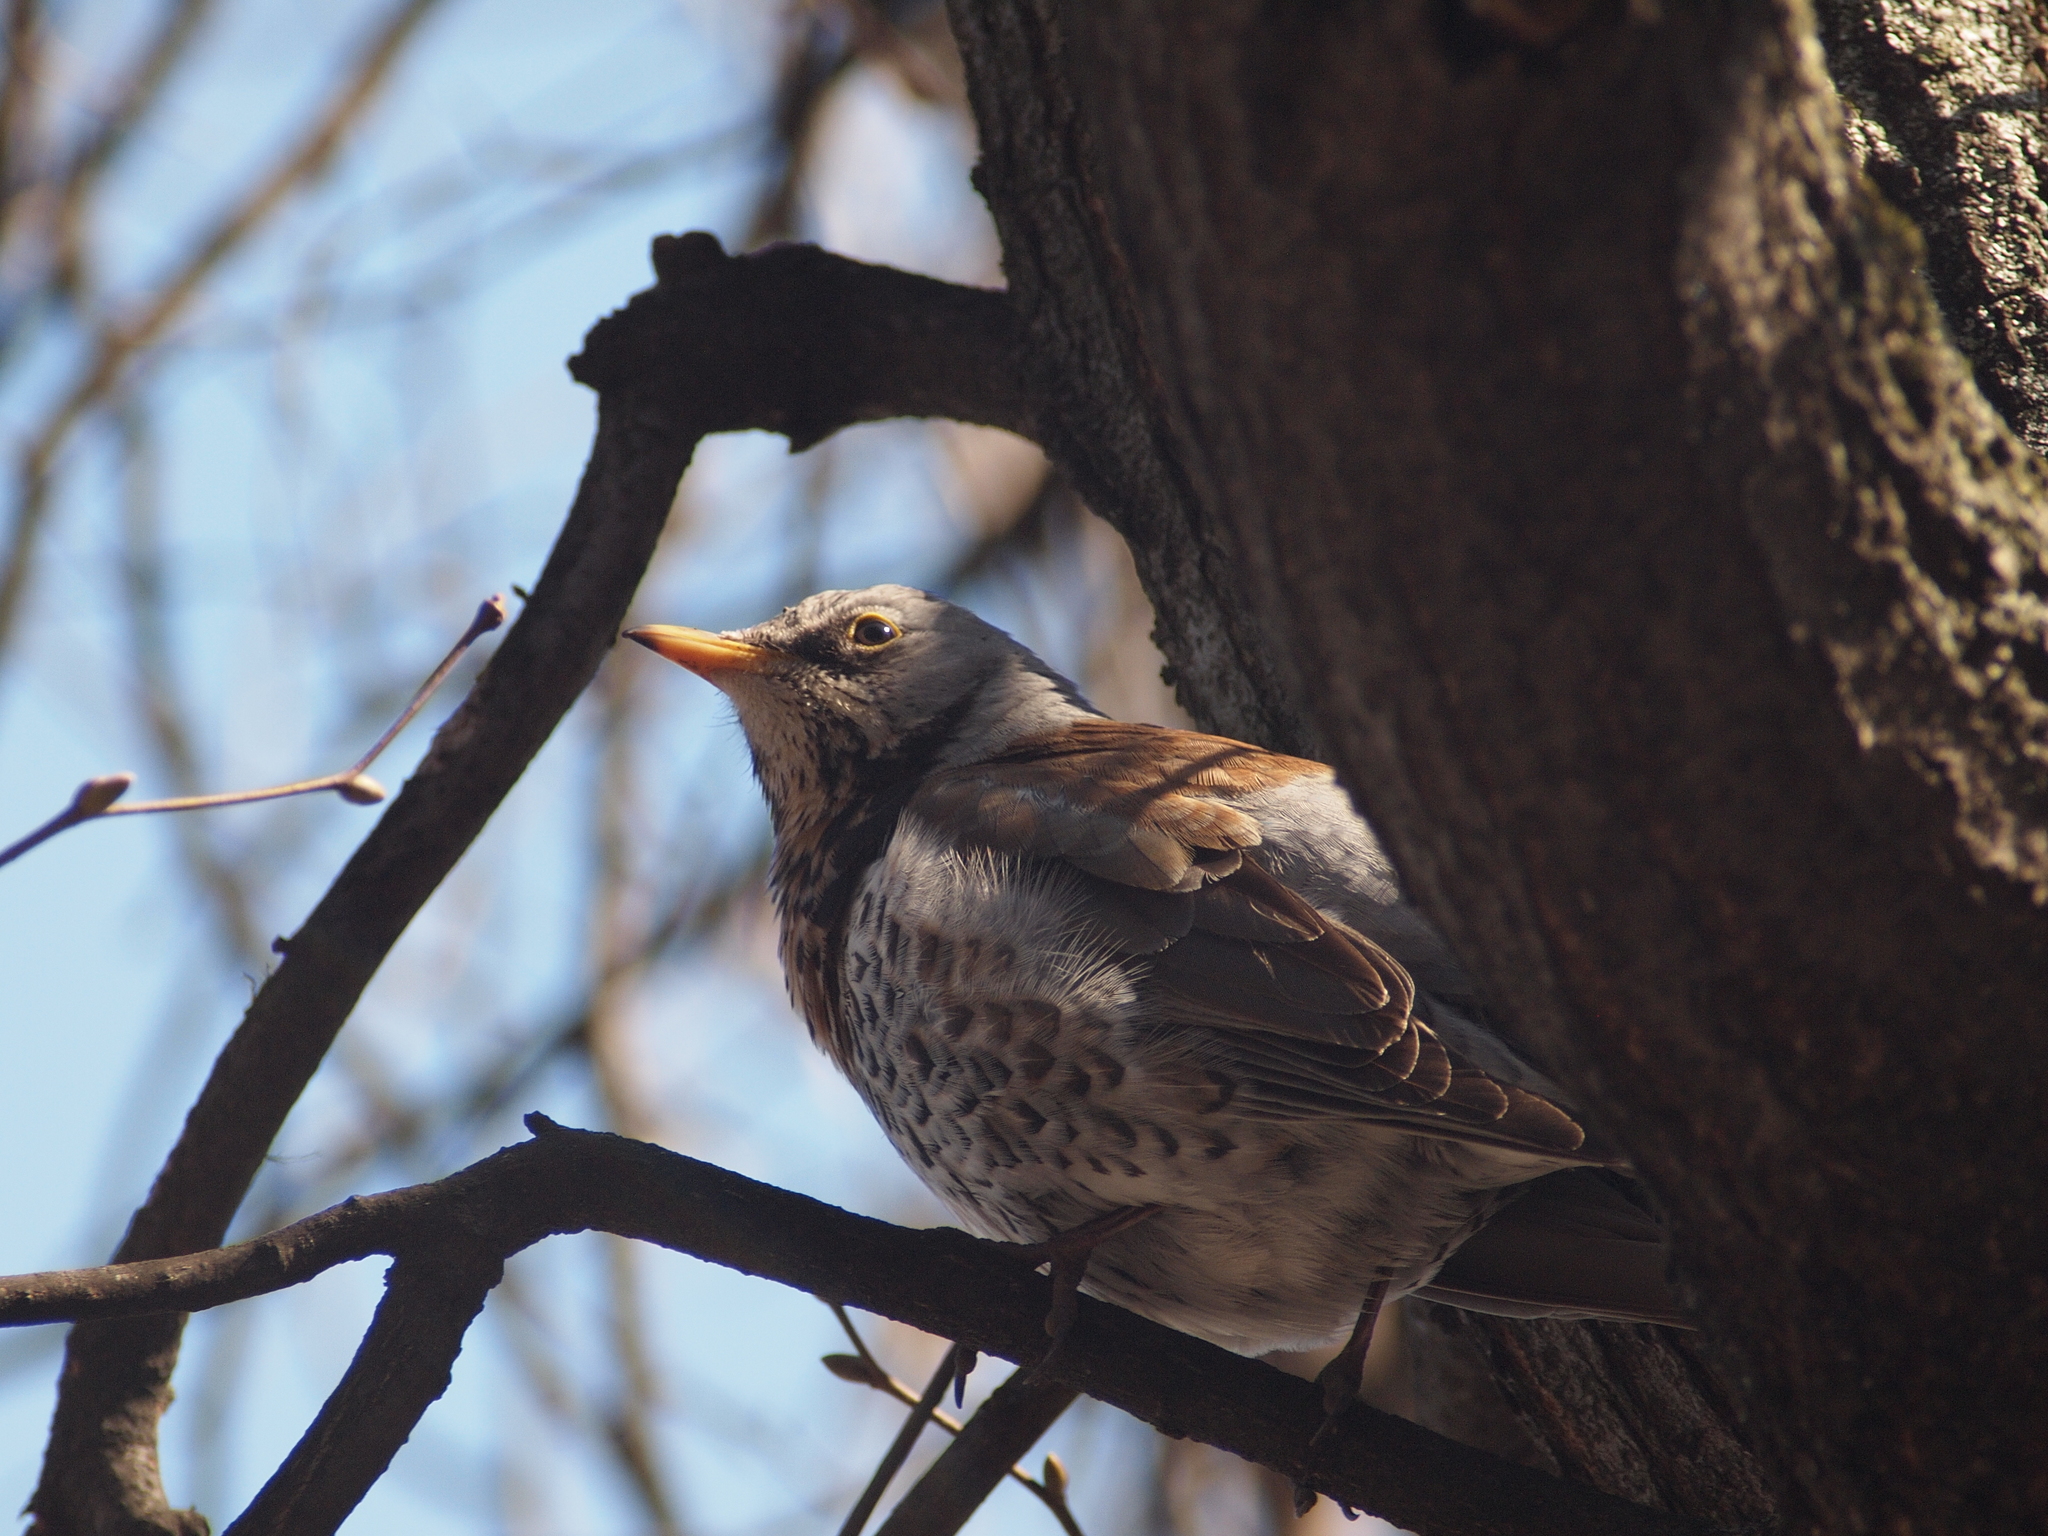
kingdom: Animalia
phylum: Chordata
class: Aves
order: Passeriformes
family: Turdidae
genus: Turdus
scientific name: Turdus pilaris
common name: Fieldfare
